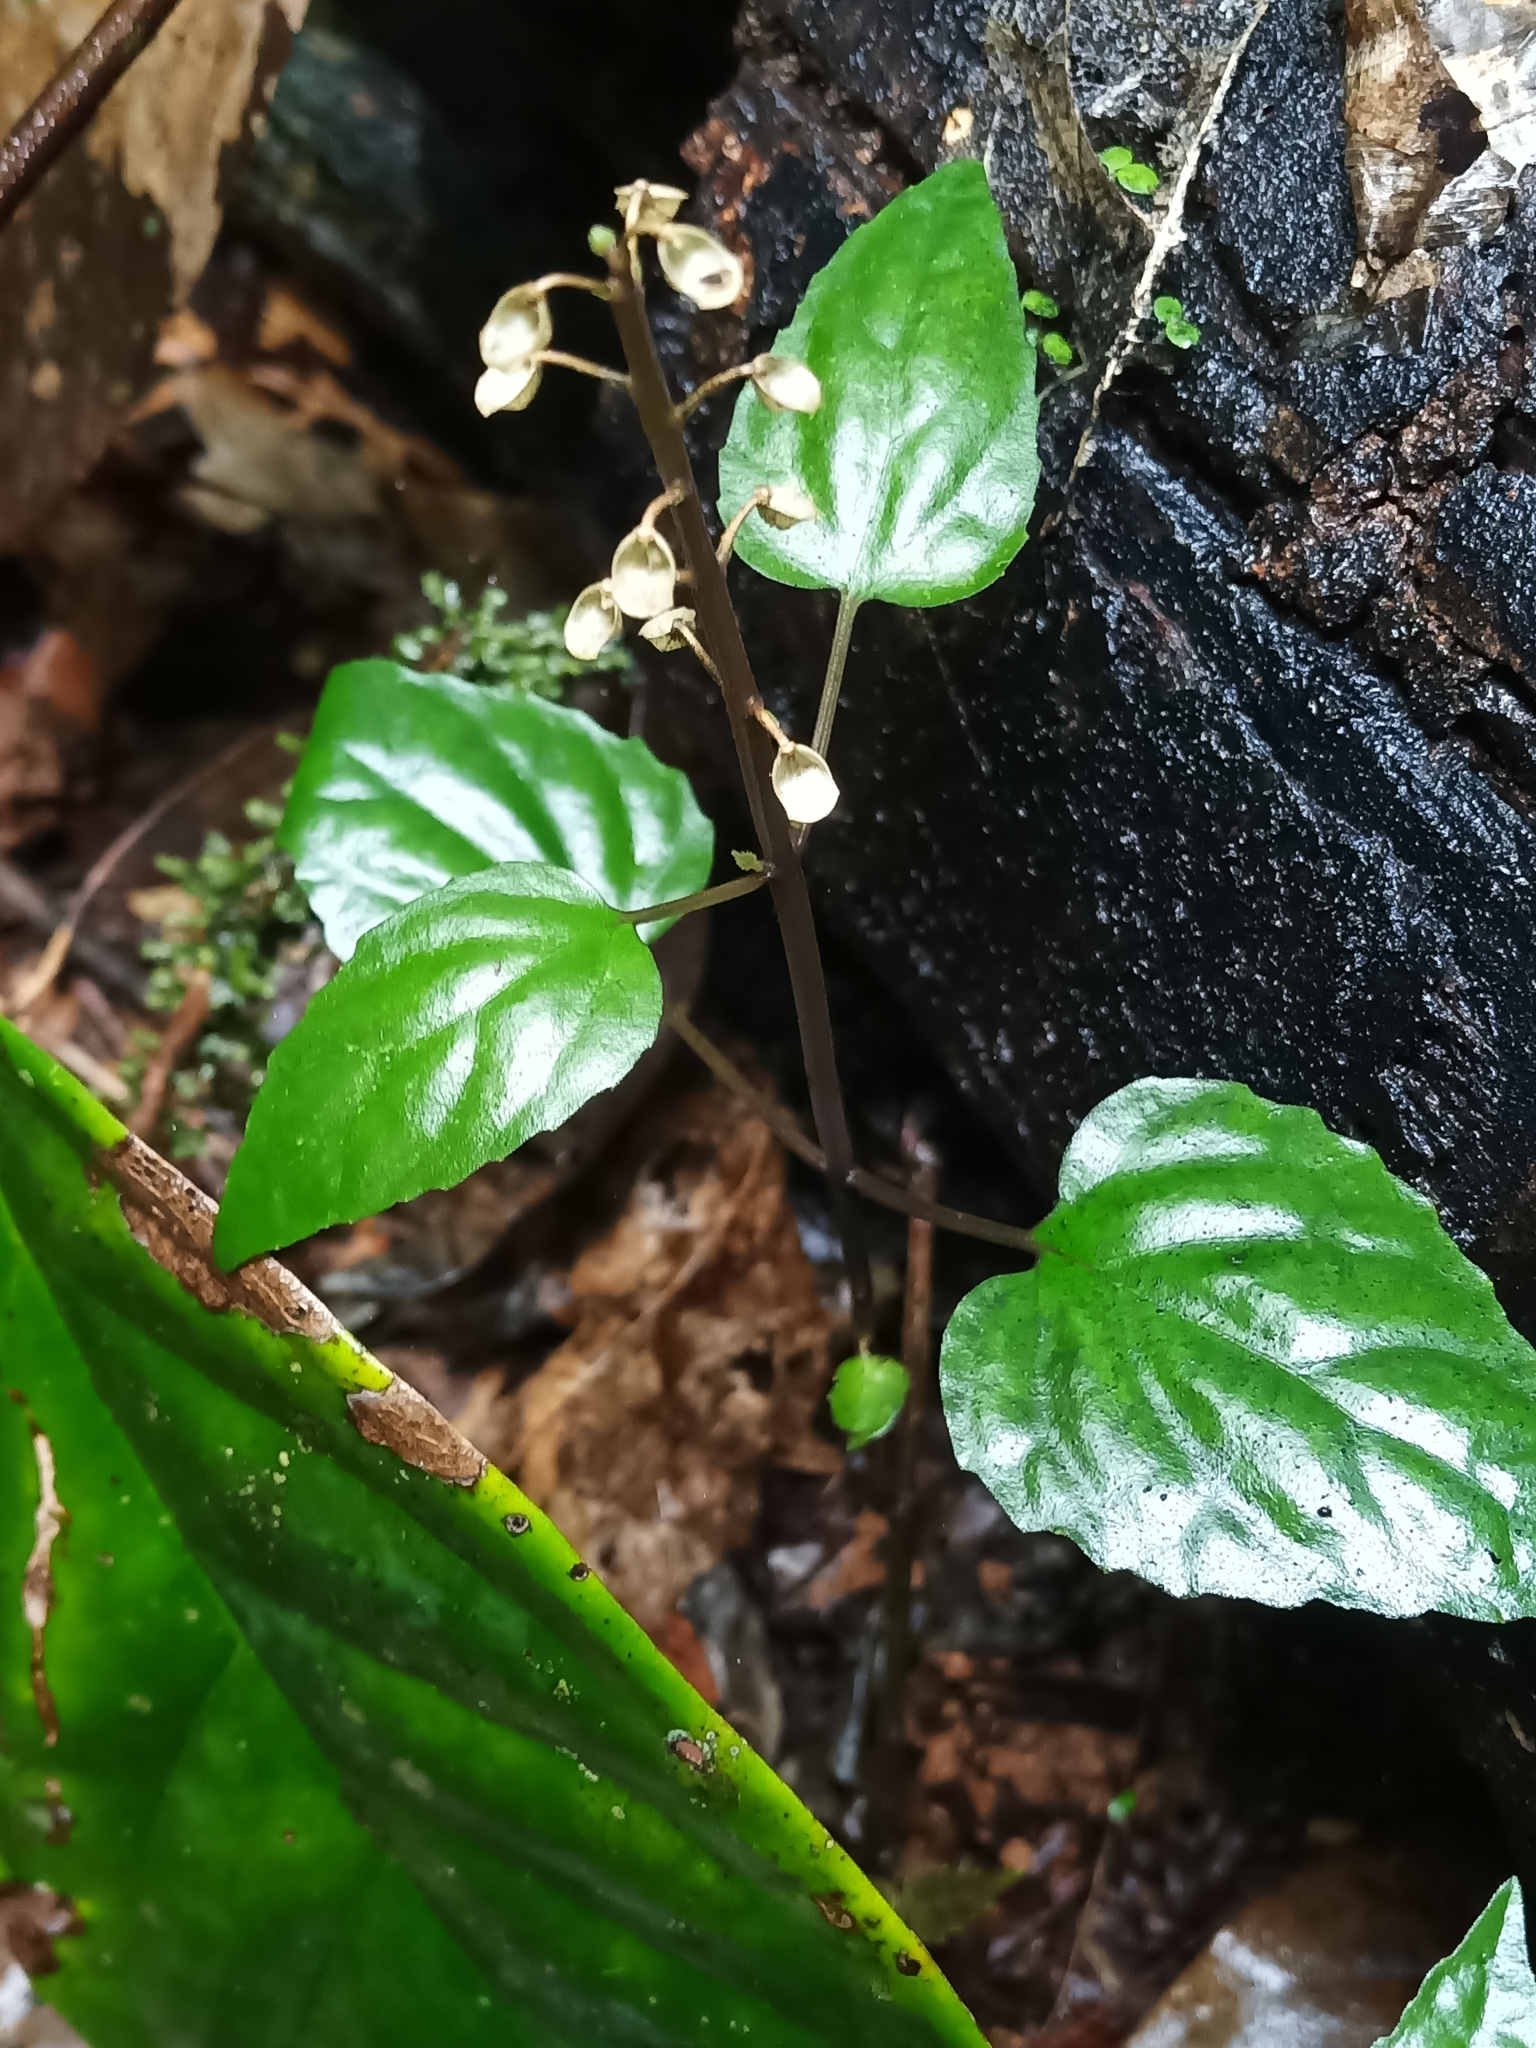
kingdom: Plantae
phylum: Tracheophyta
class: Magnoliopsida
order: Lamiales
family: Lamiaceae
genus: Scutellaria
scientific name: Scutellaria leucantha
